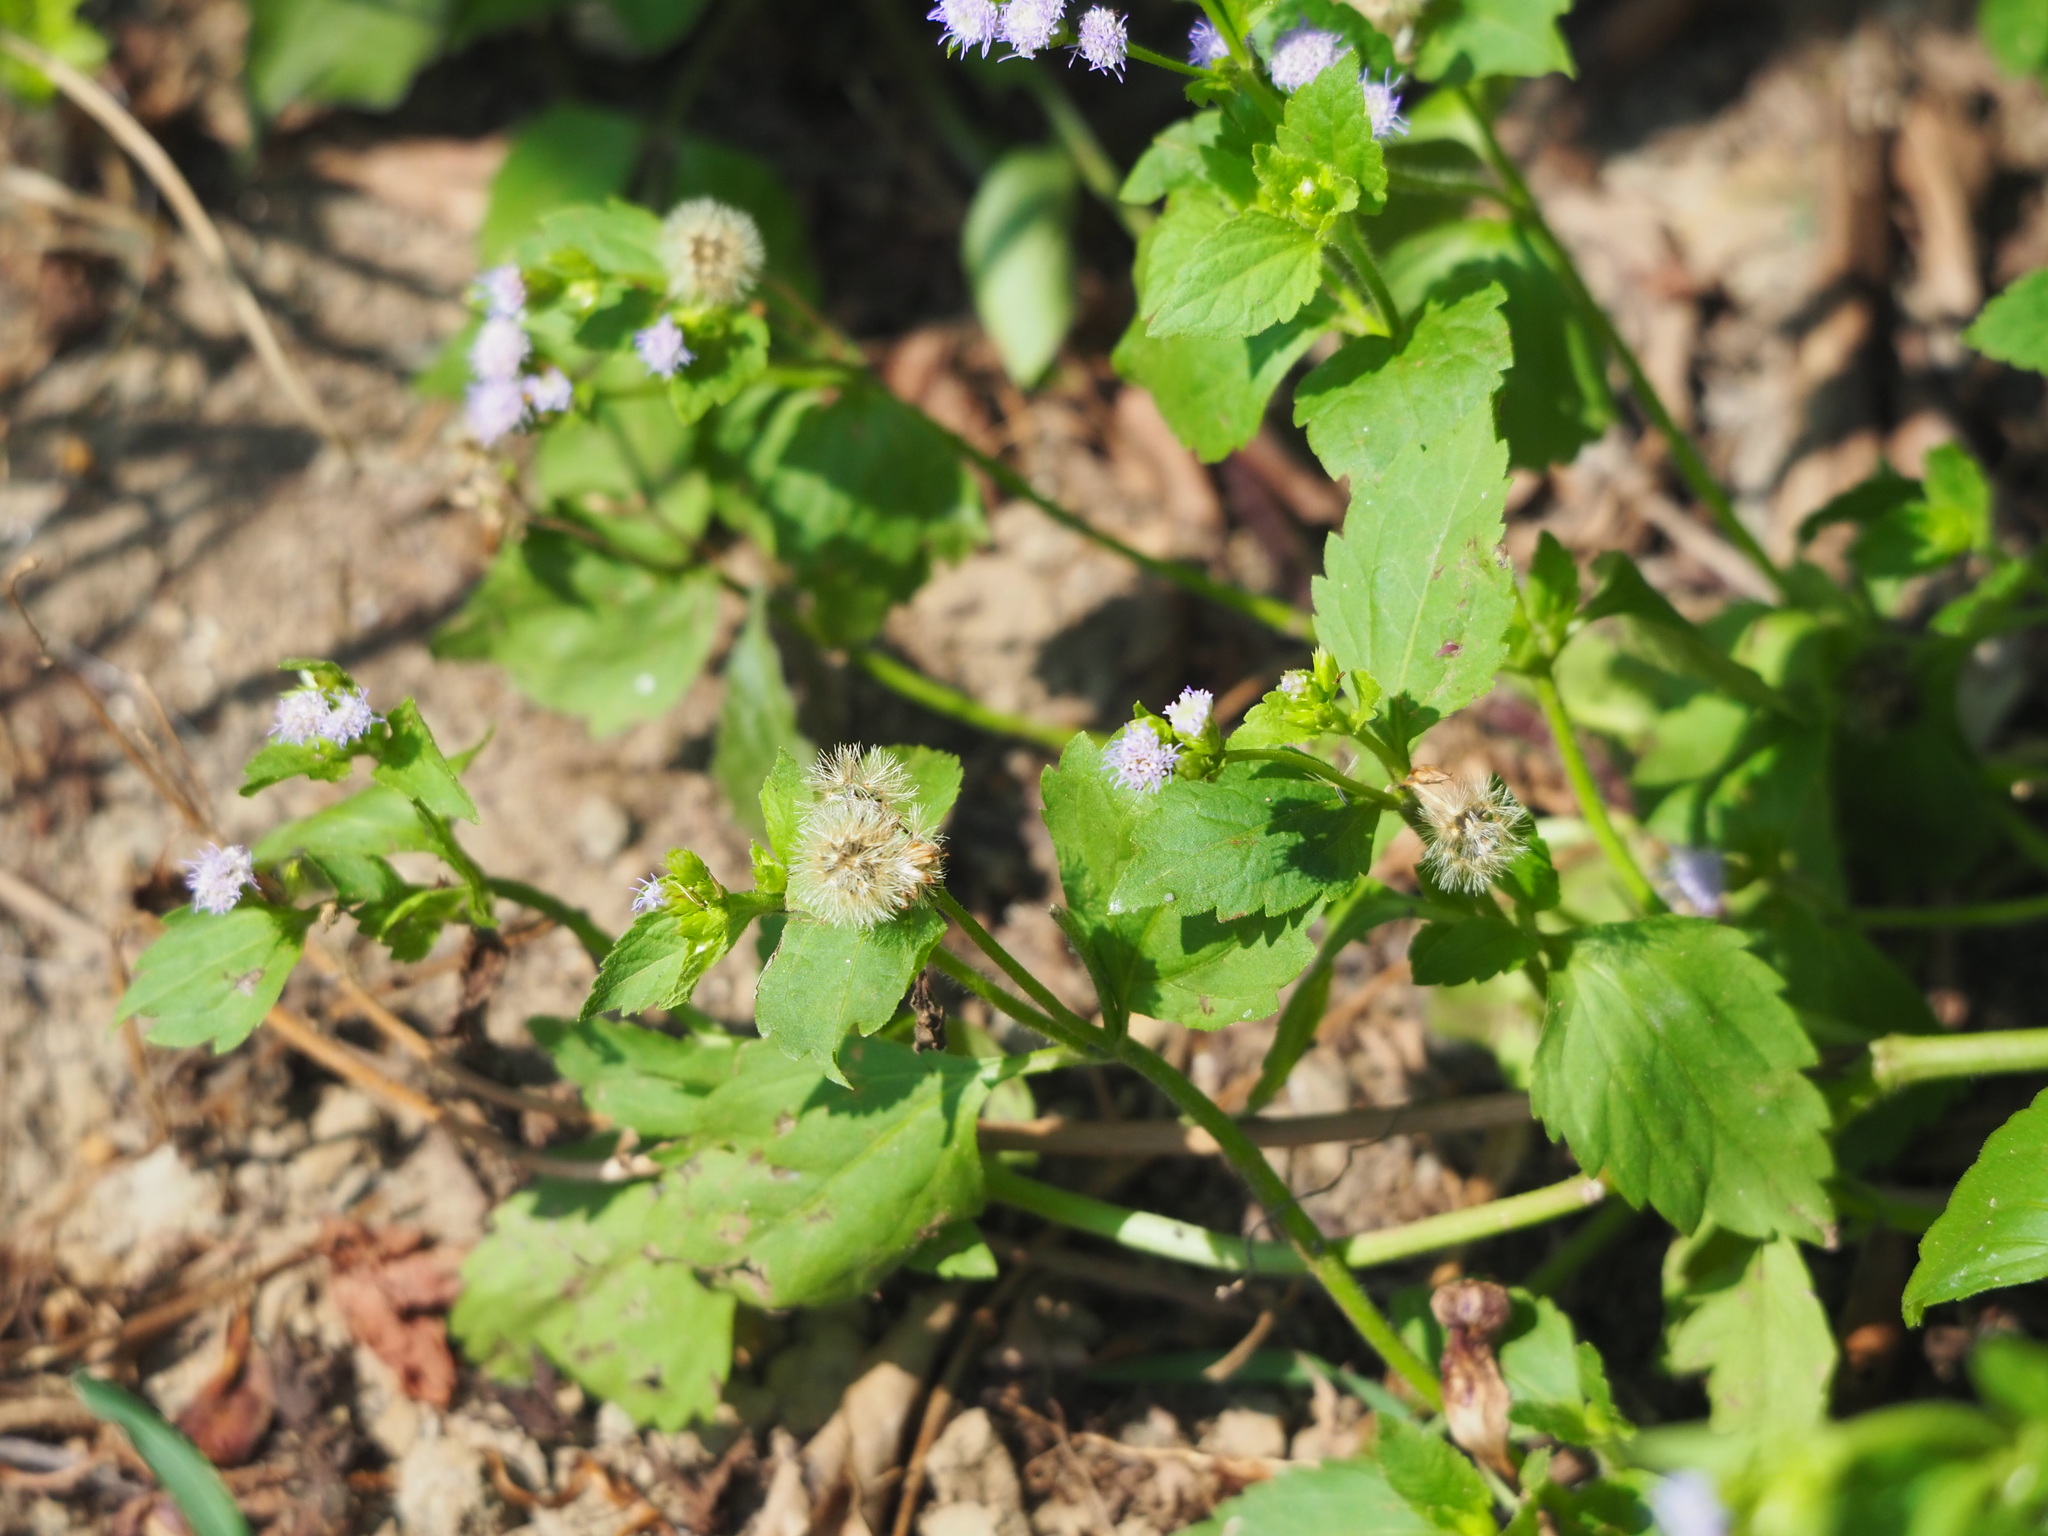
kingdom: Plantae
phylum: Tracheophyta
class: Magnoliopsida
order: Asterales
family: Asteraceae
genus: Praxelis
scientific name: Praxelis clematidea
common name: Praxelis
